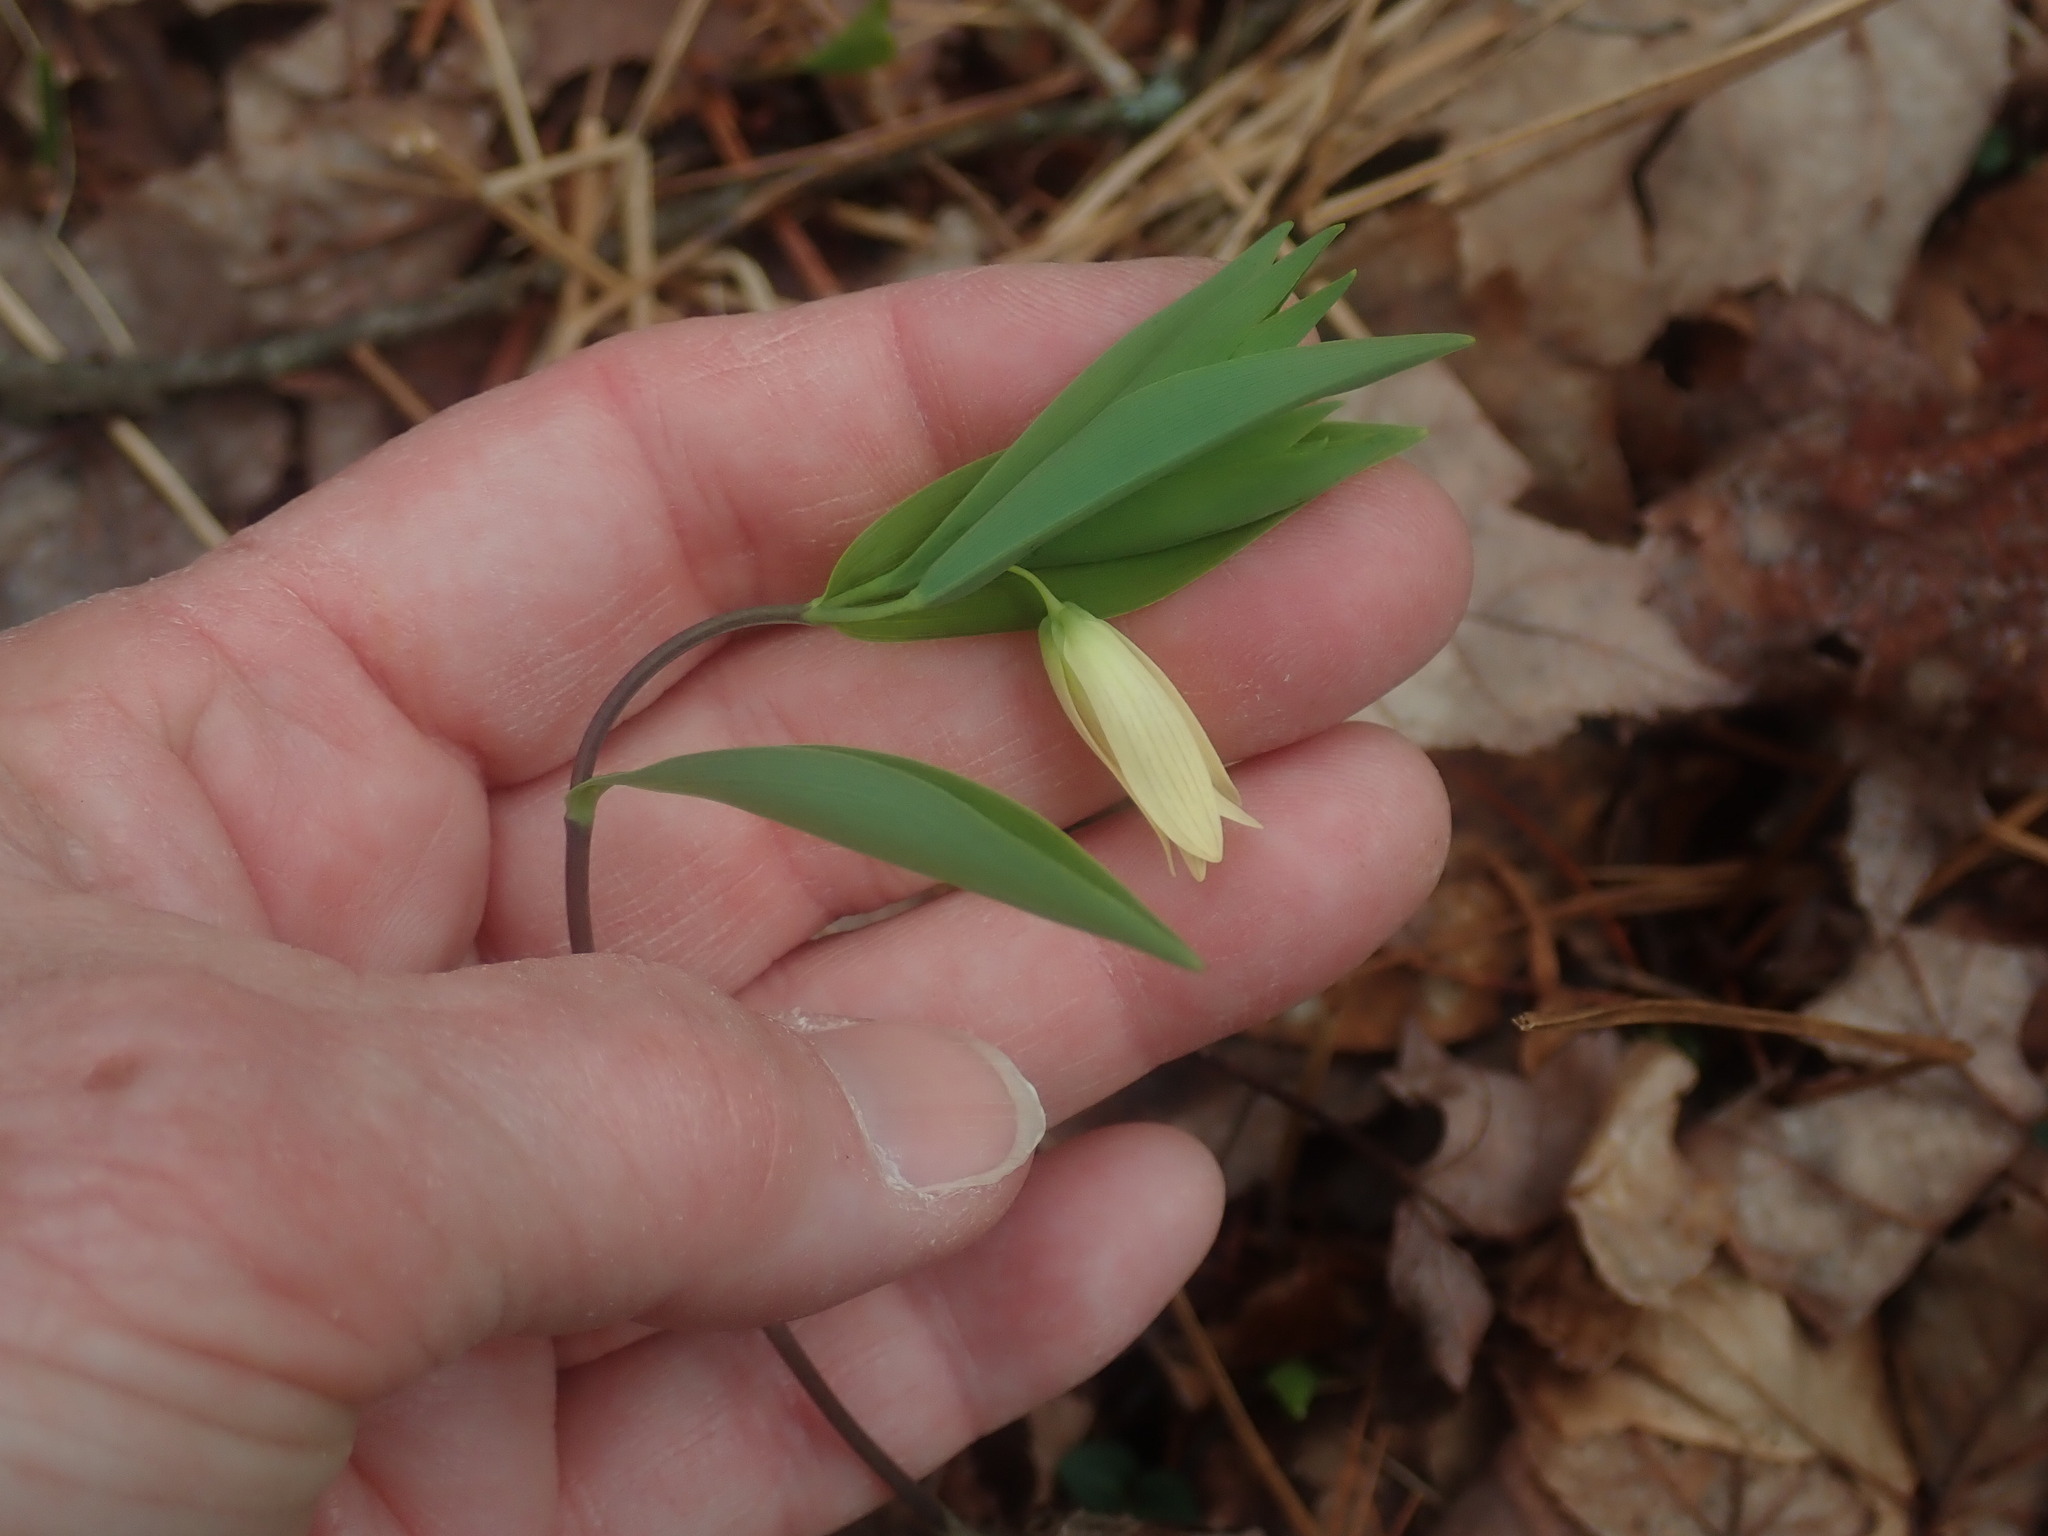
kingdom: Plantae
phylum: Tracheophyta
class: Liliopsida
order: Liliales
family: Colchicaceae
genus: Uvularia
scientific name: Uvularia sessilifolia
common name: Straw-lily
